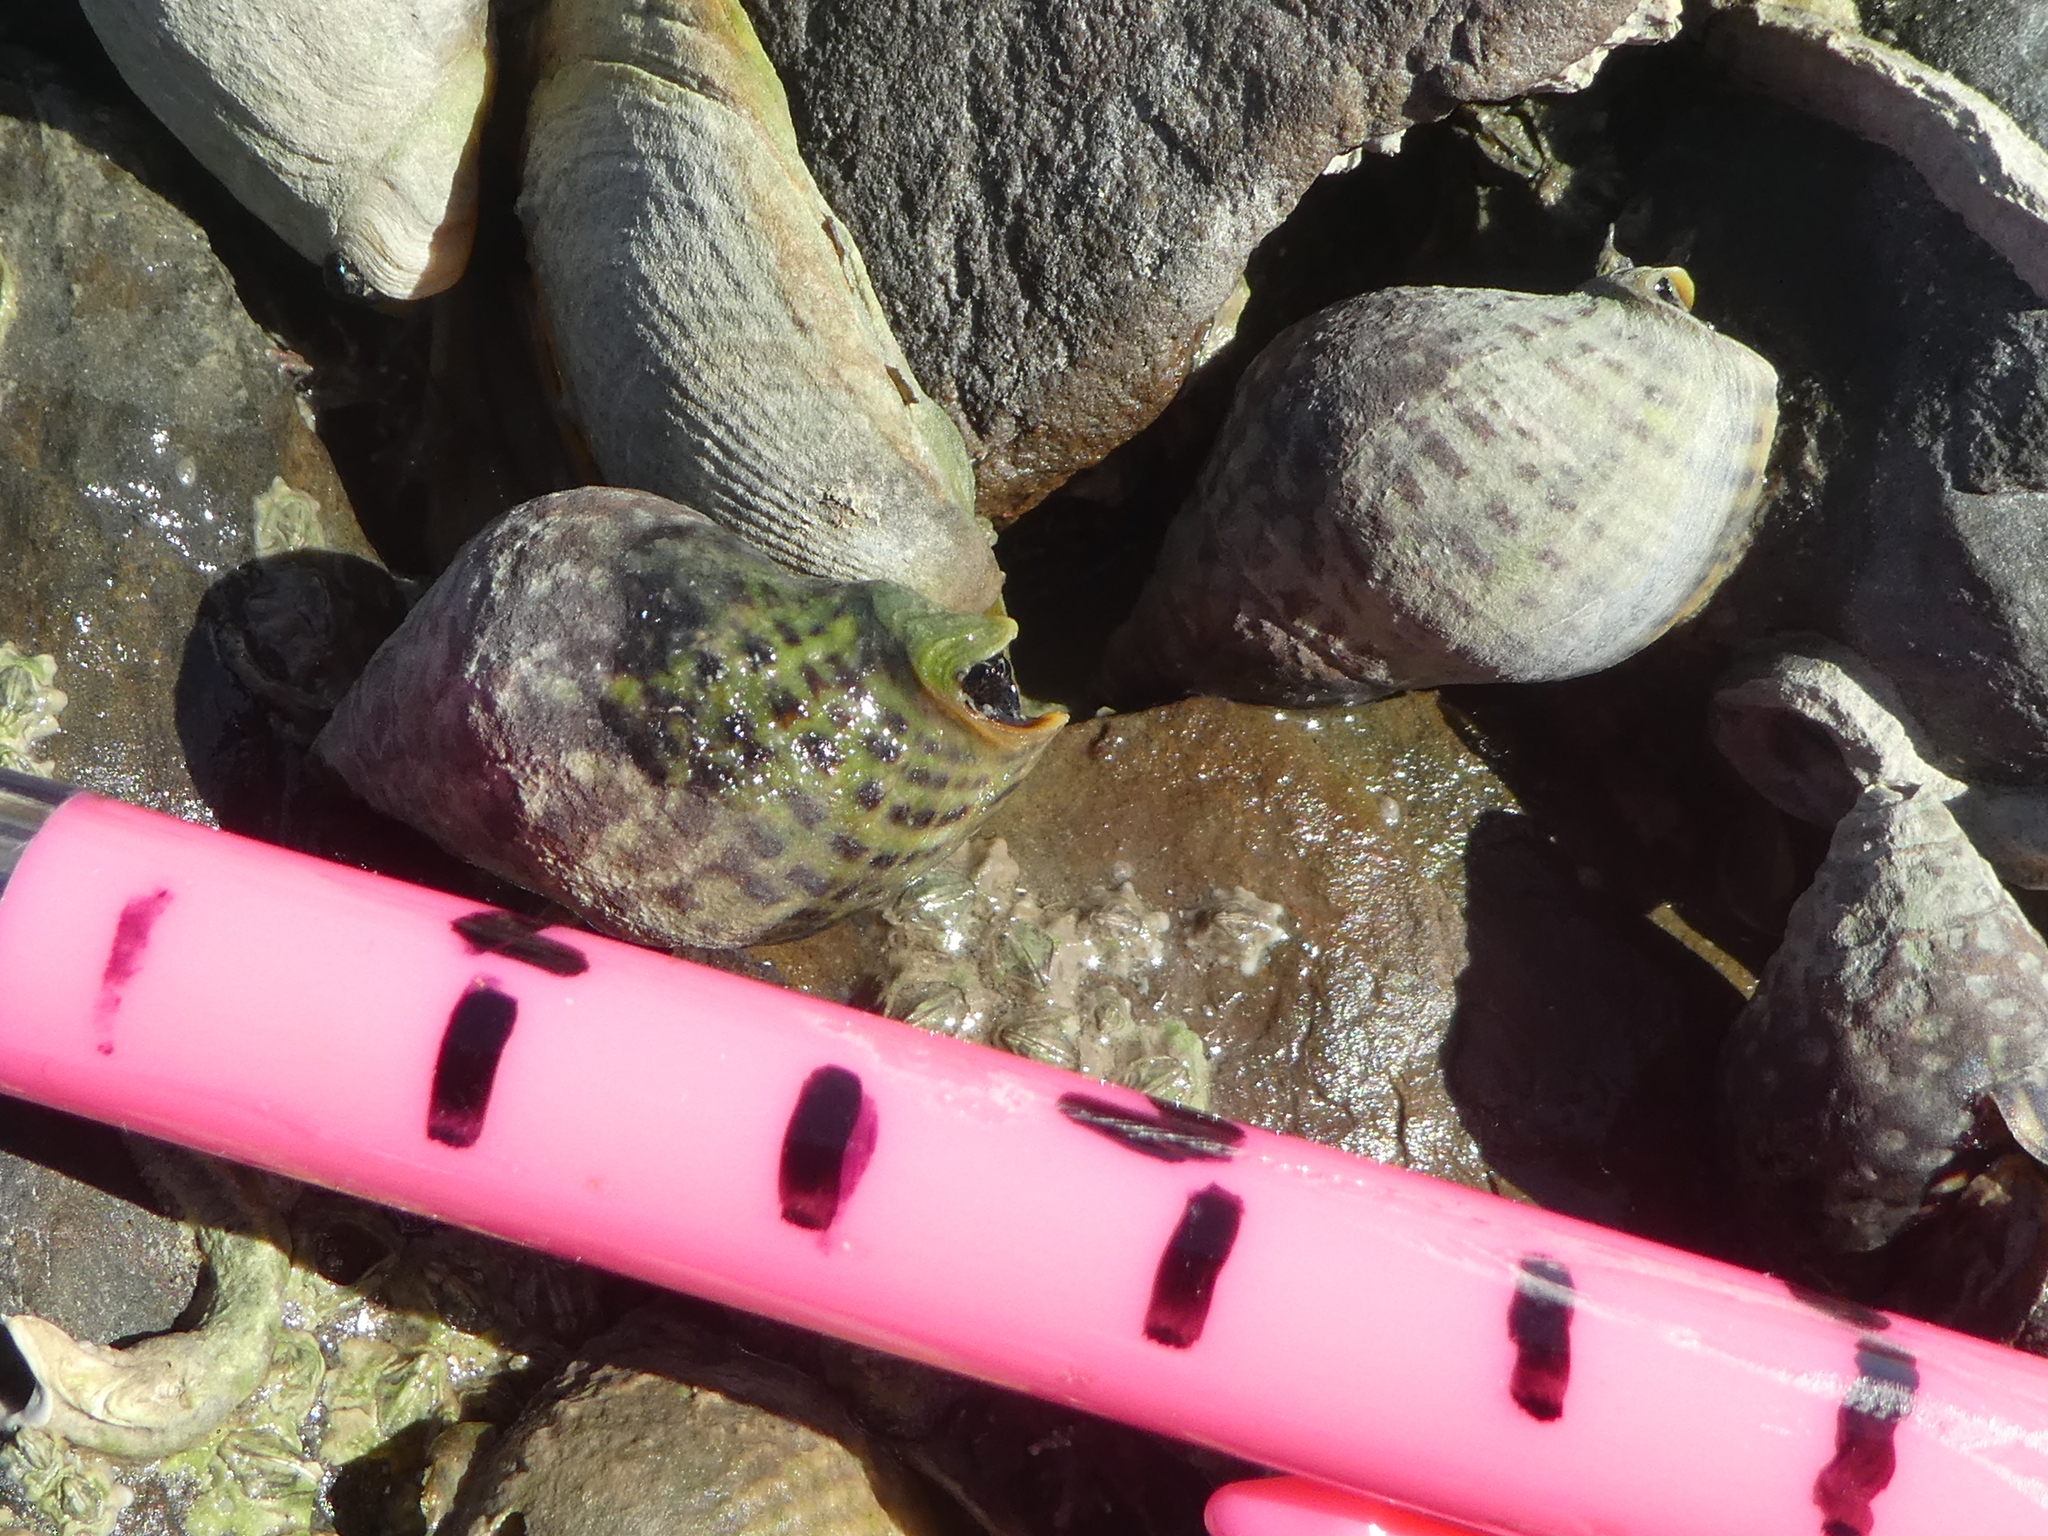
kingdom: Animalia
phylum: Mollusca
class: Gastropoda
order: Neogastropoda
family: Cominellidae
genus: Cominella
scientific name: Cominella maculosa
